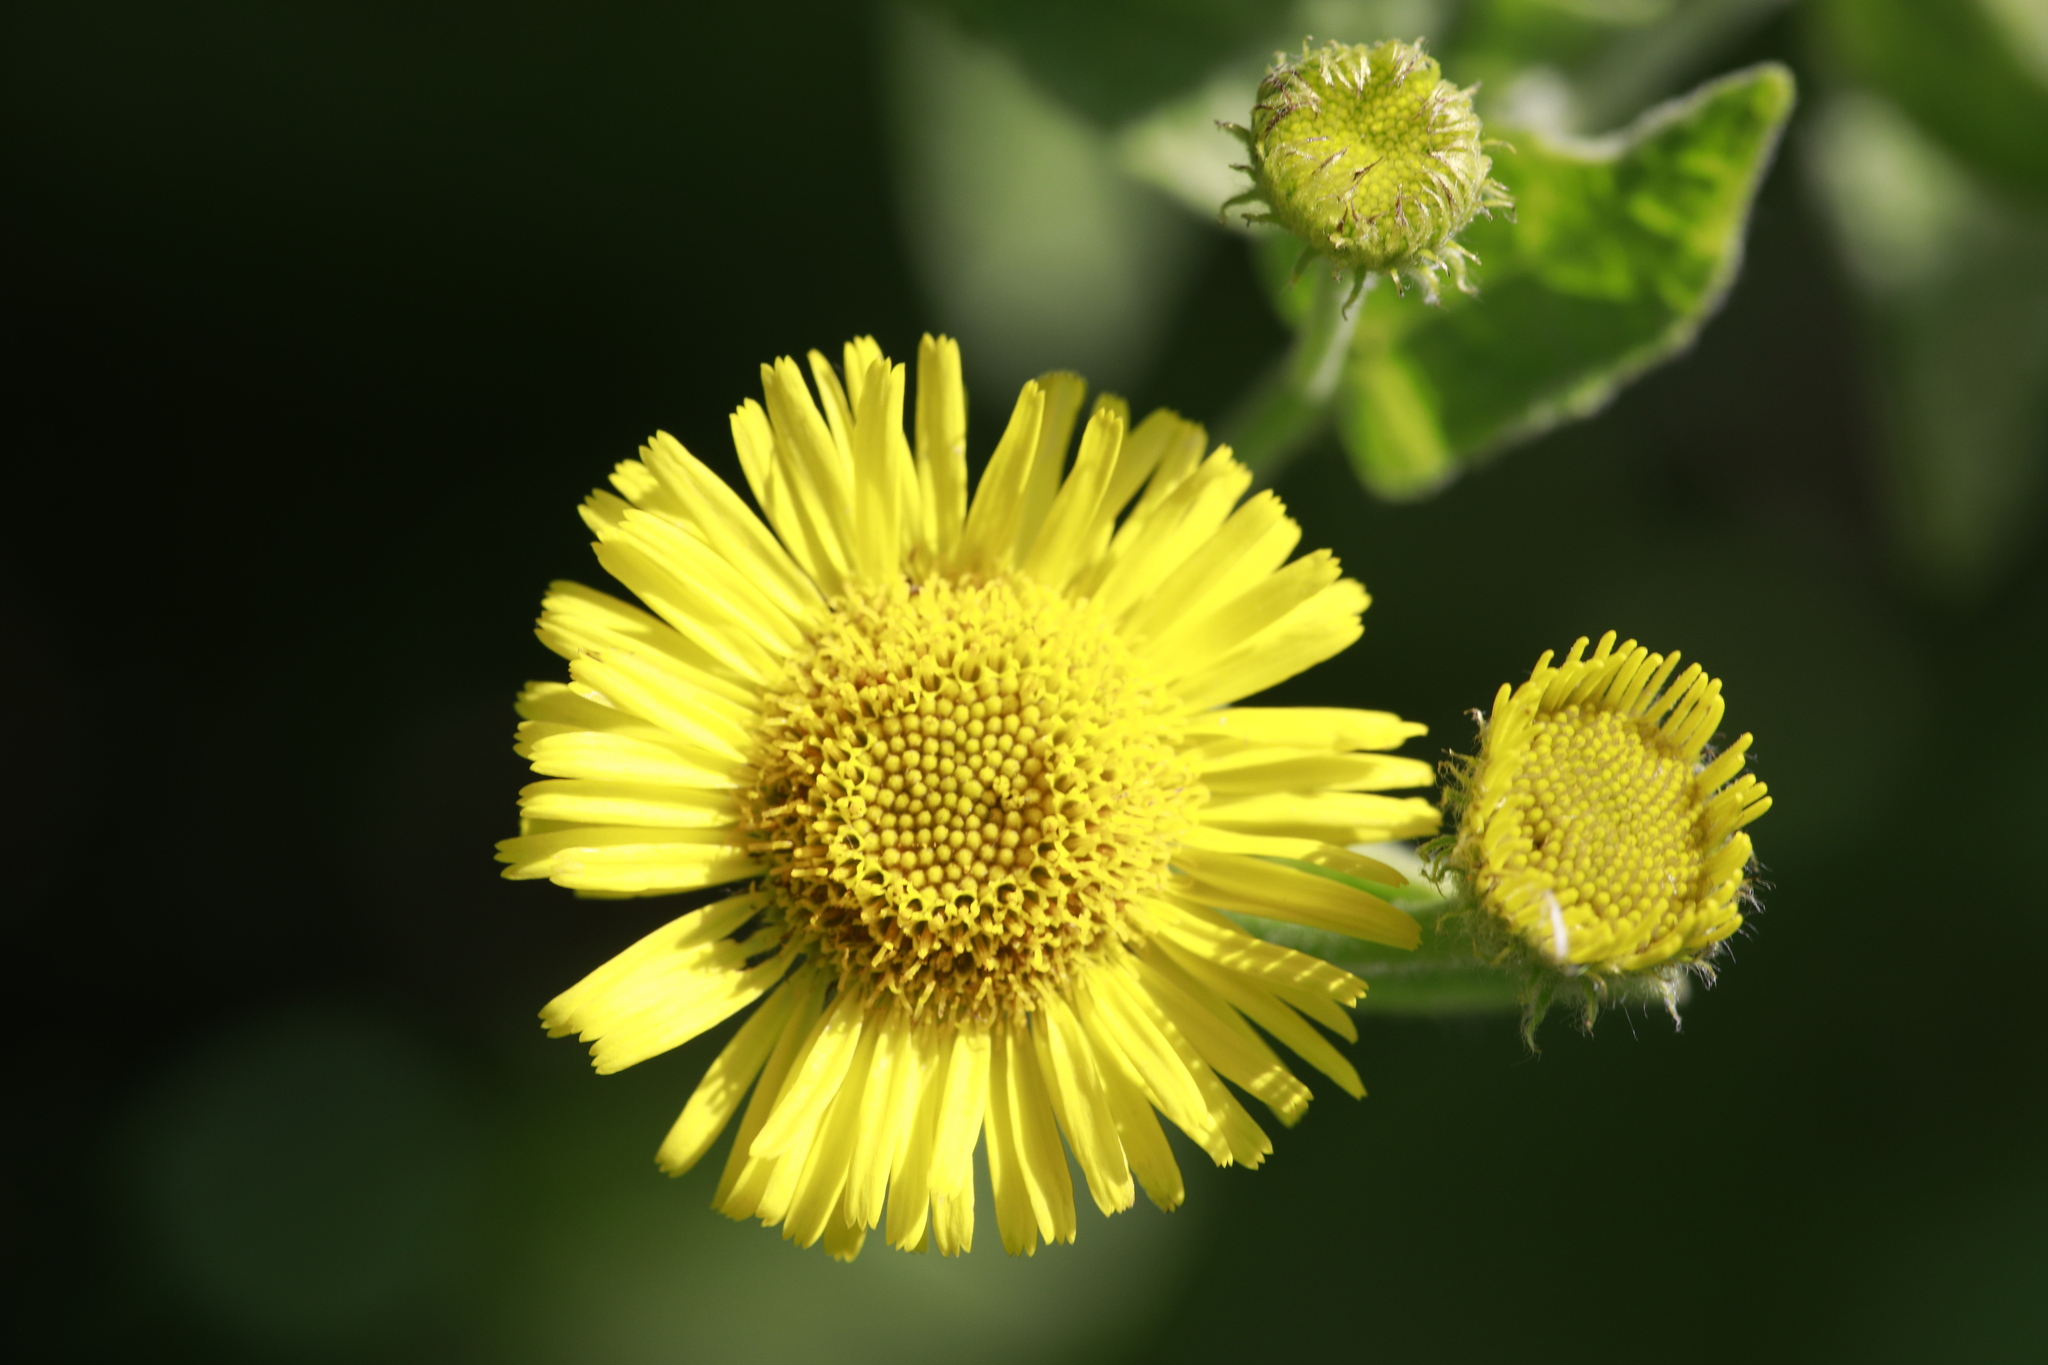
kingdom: Plantae
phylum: Tracheophyta
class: Magnoliopsida
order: Asterales
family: Asteraceae
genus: Pulicaria
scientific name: Pulicaria dysenterica
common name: Common fleabane
